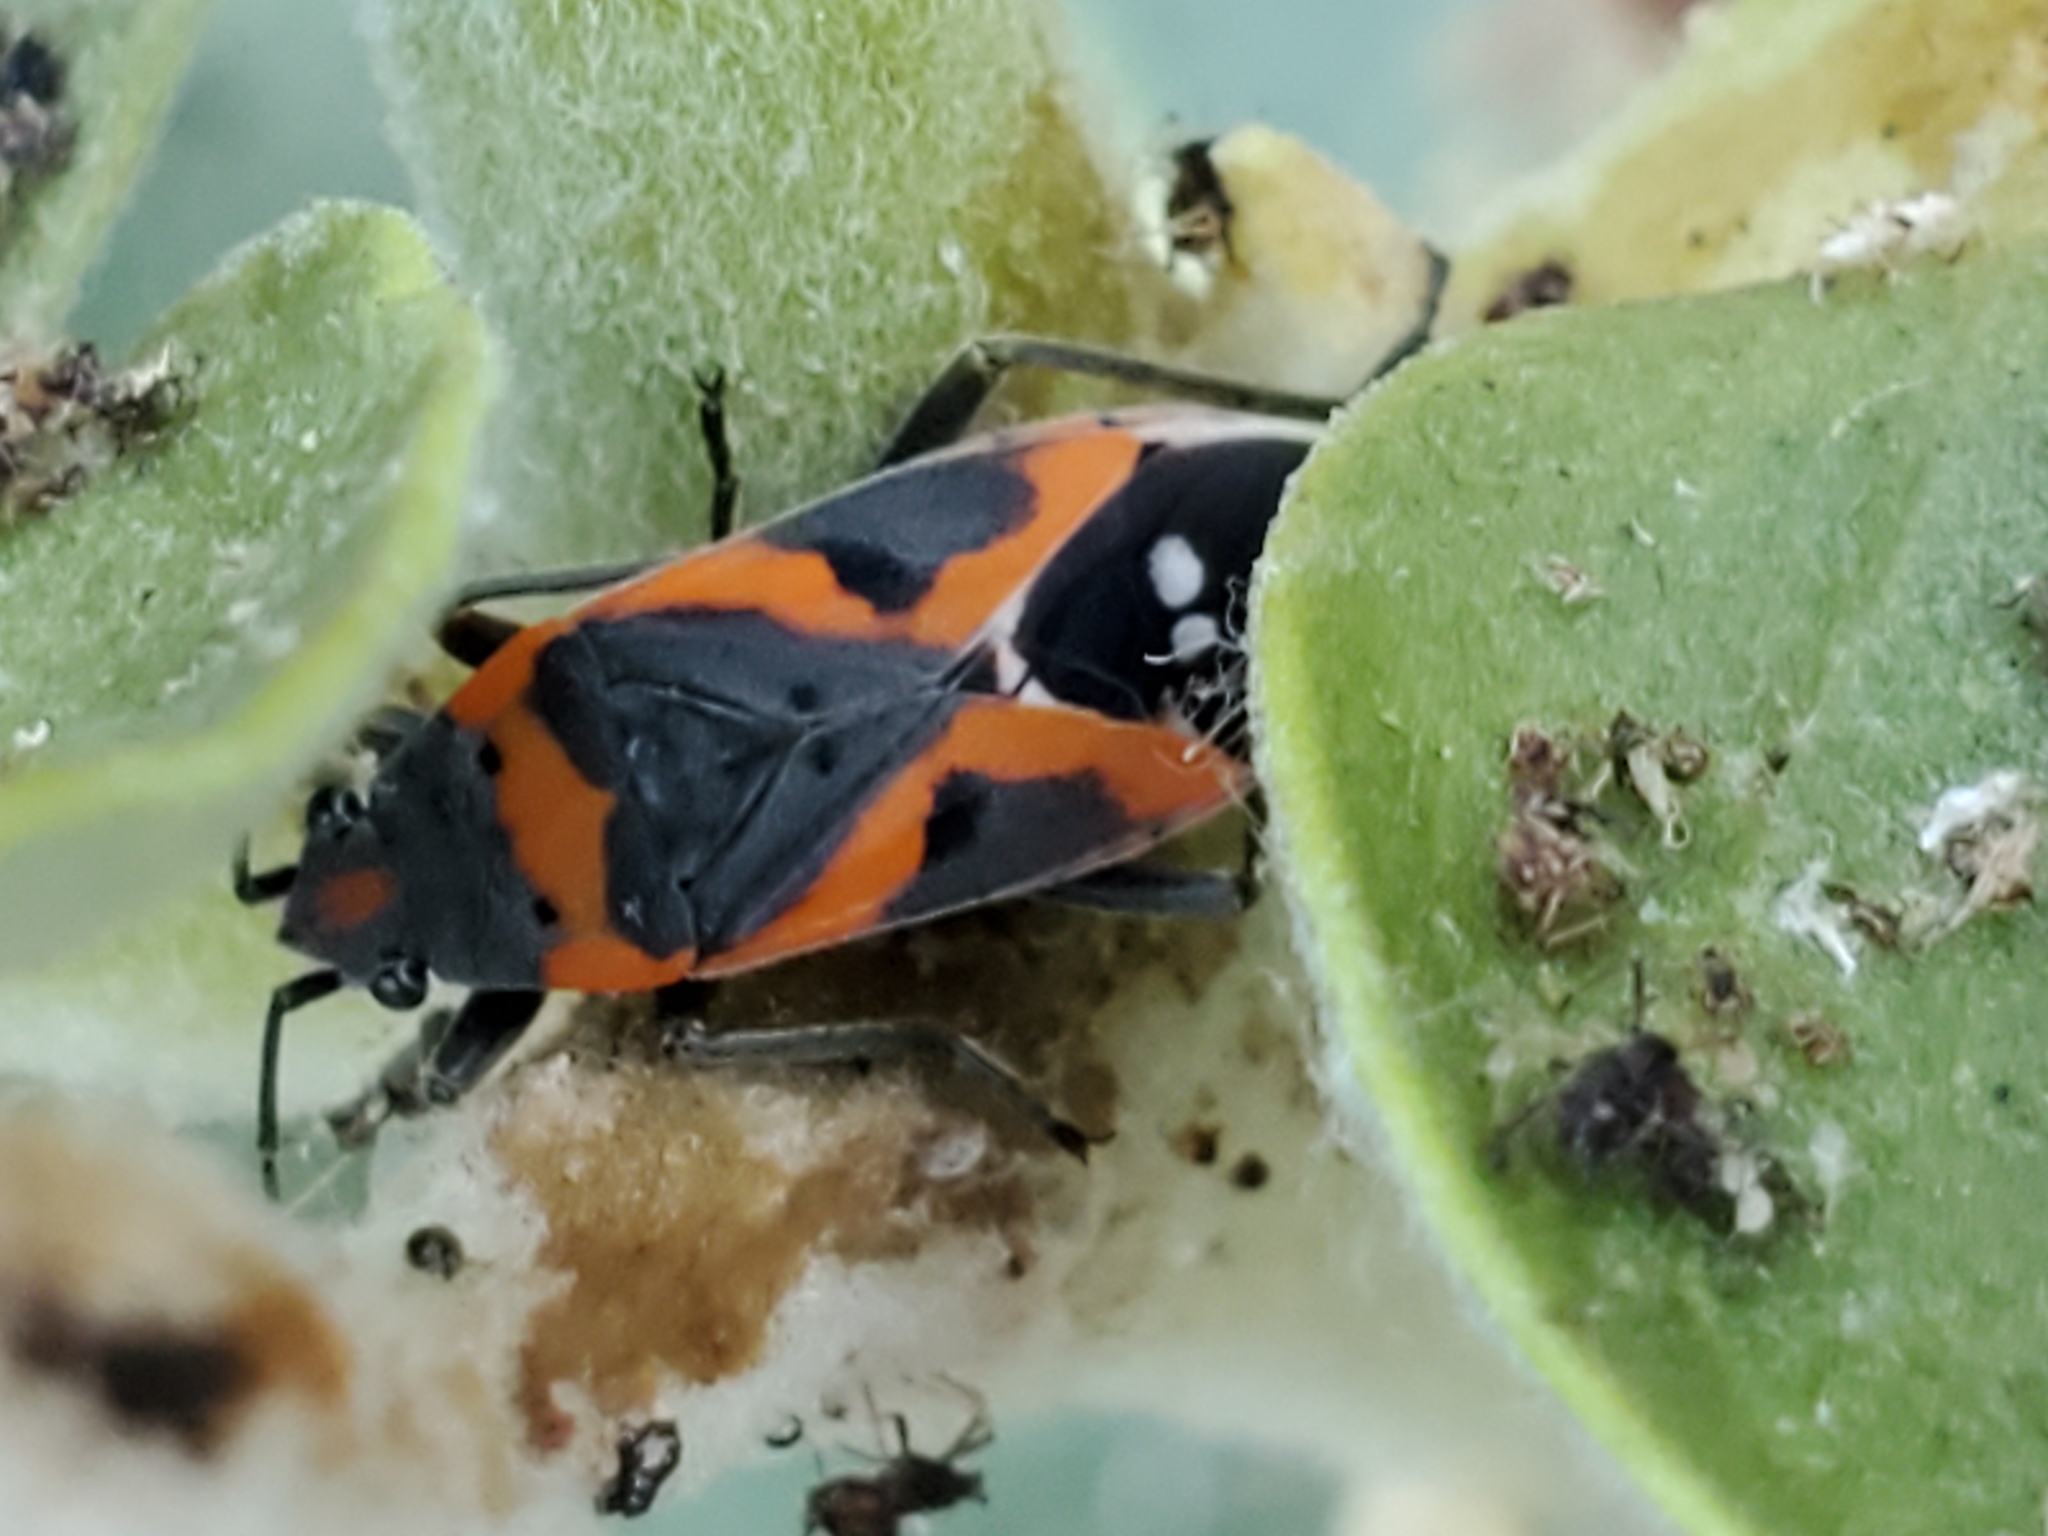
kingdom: Animalia
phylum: Arthropoda
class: Insecta
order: Hemiptera
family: Lygaeidae
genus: Lygaeus
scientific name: Lygaeus kalmii
